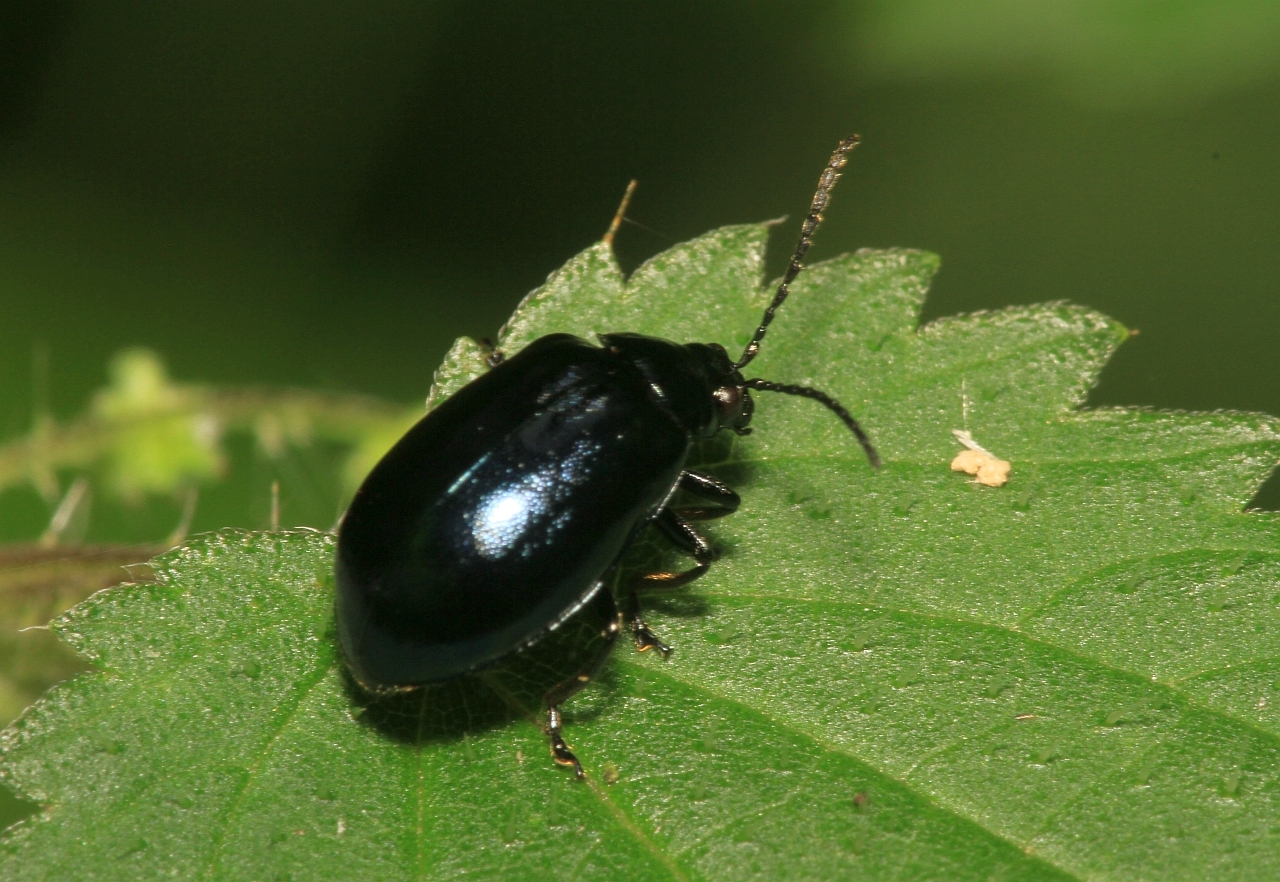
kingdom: Animalia
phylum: Arthropoda
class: Insecta
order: Coleoptera
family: Chrysomelidae
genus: Agelastica
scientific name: Agelastica alni
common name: Alder leaf beetle
